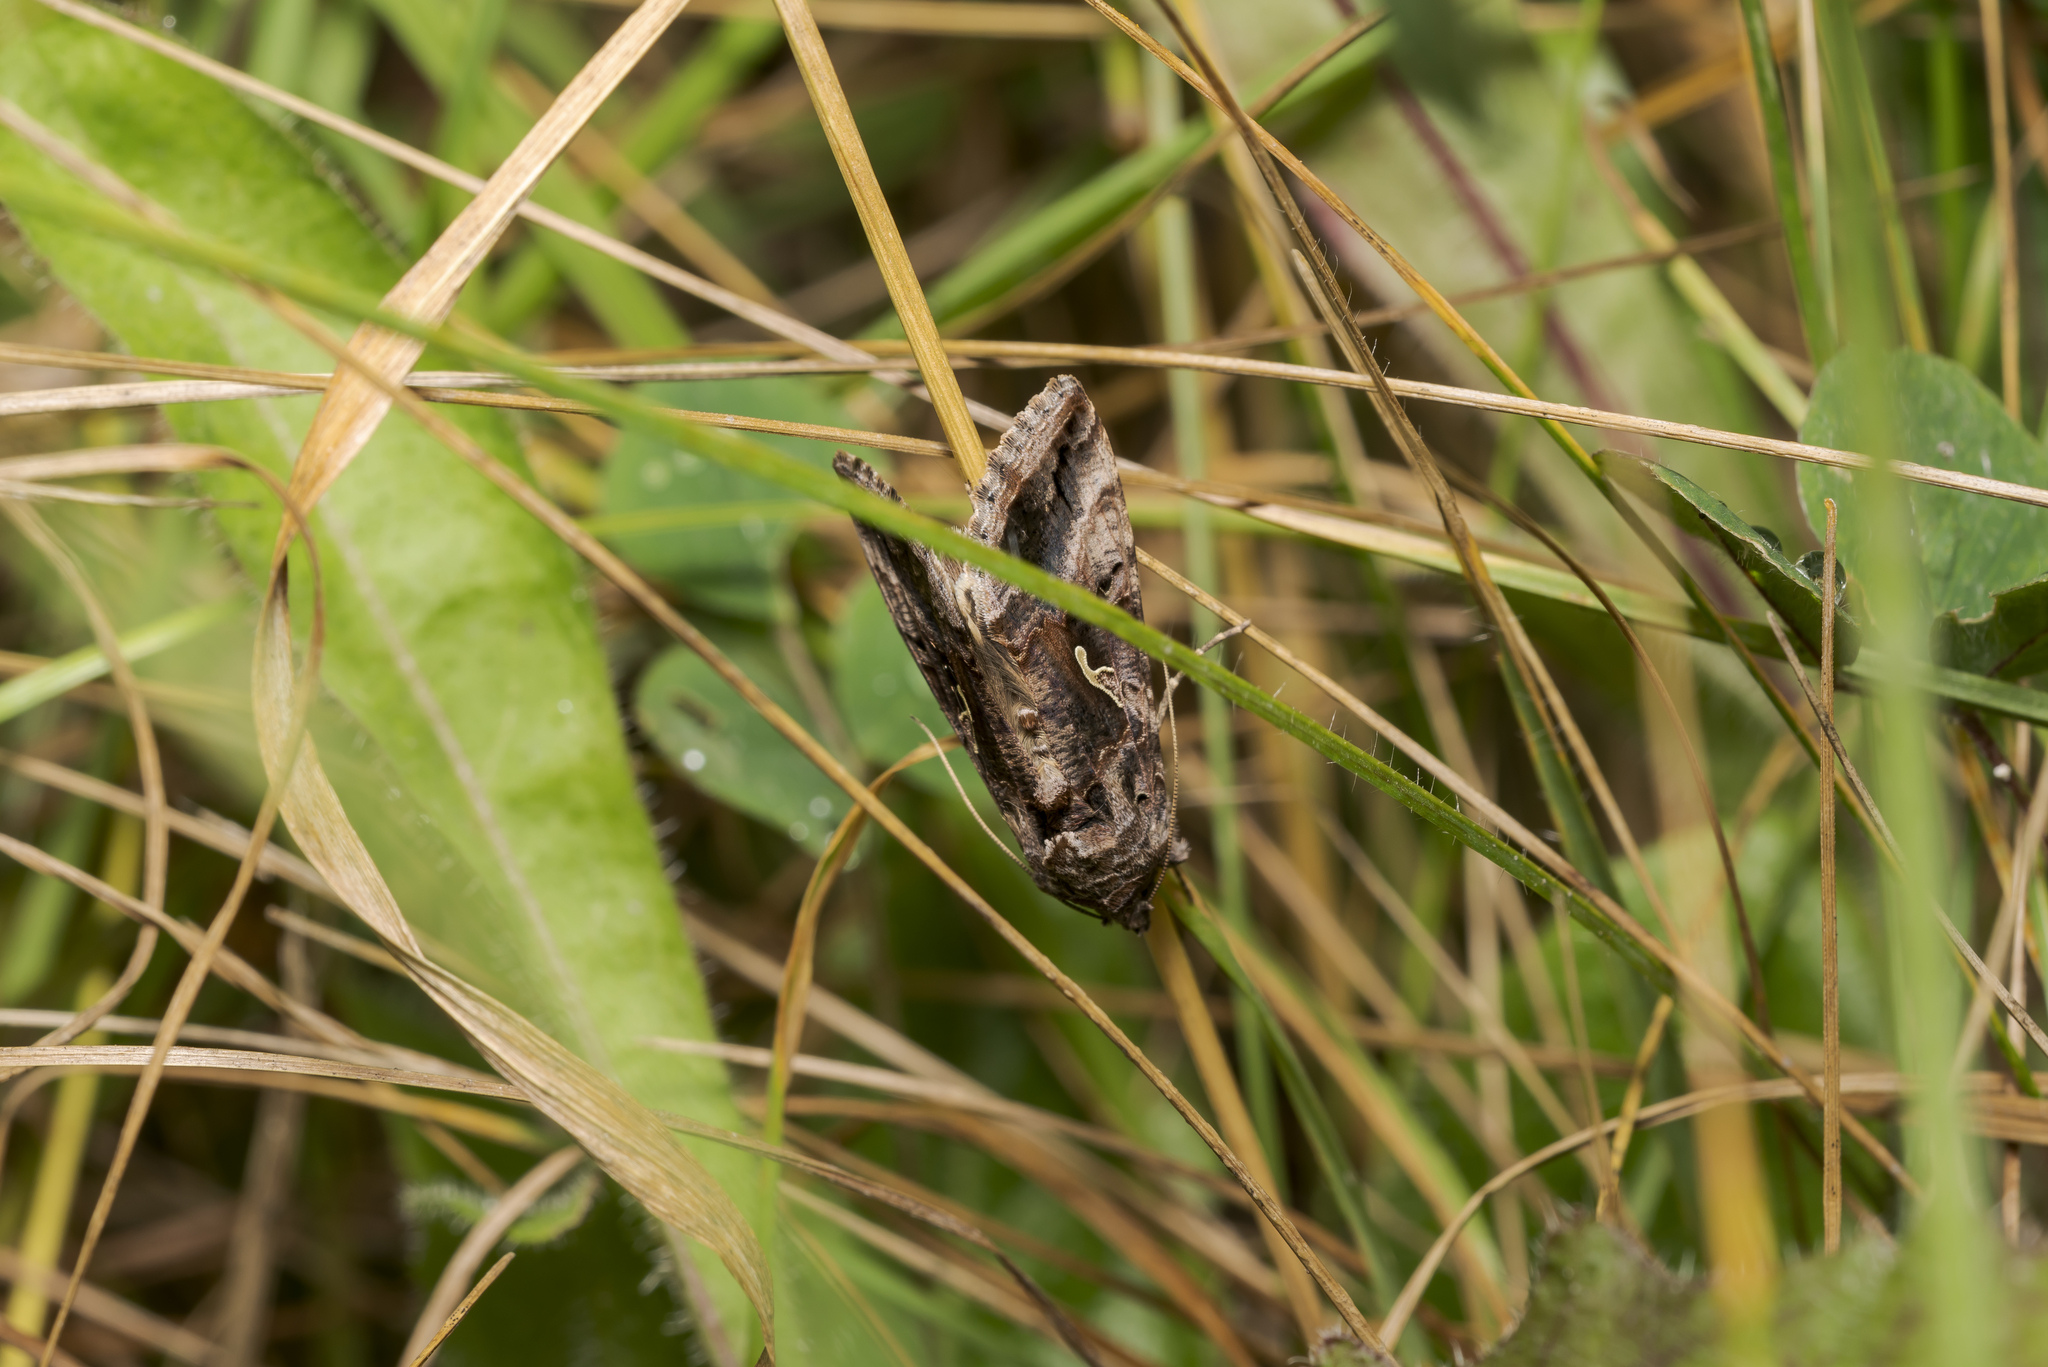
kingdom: Animalia
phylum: Arthropoda
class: Insecta
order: Lepidoptera
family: Noctuidae
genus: Autographa
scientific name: Autographa gamma
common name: Silver y
